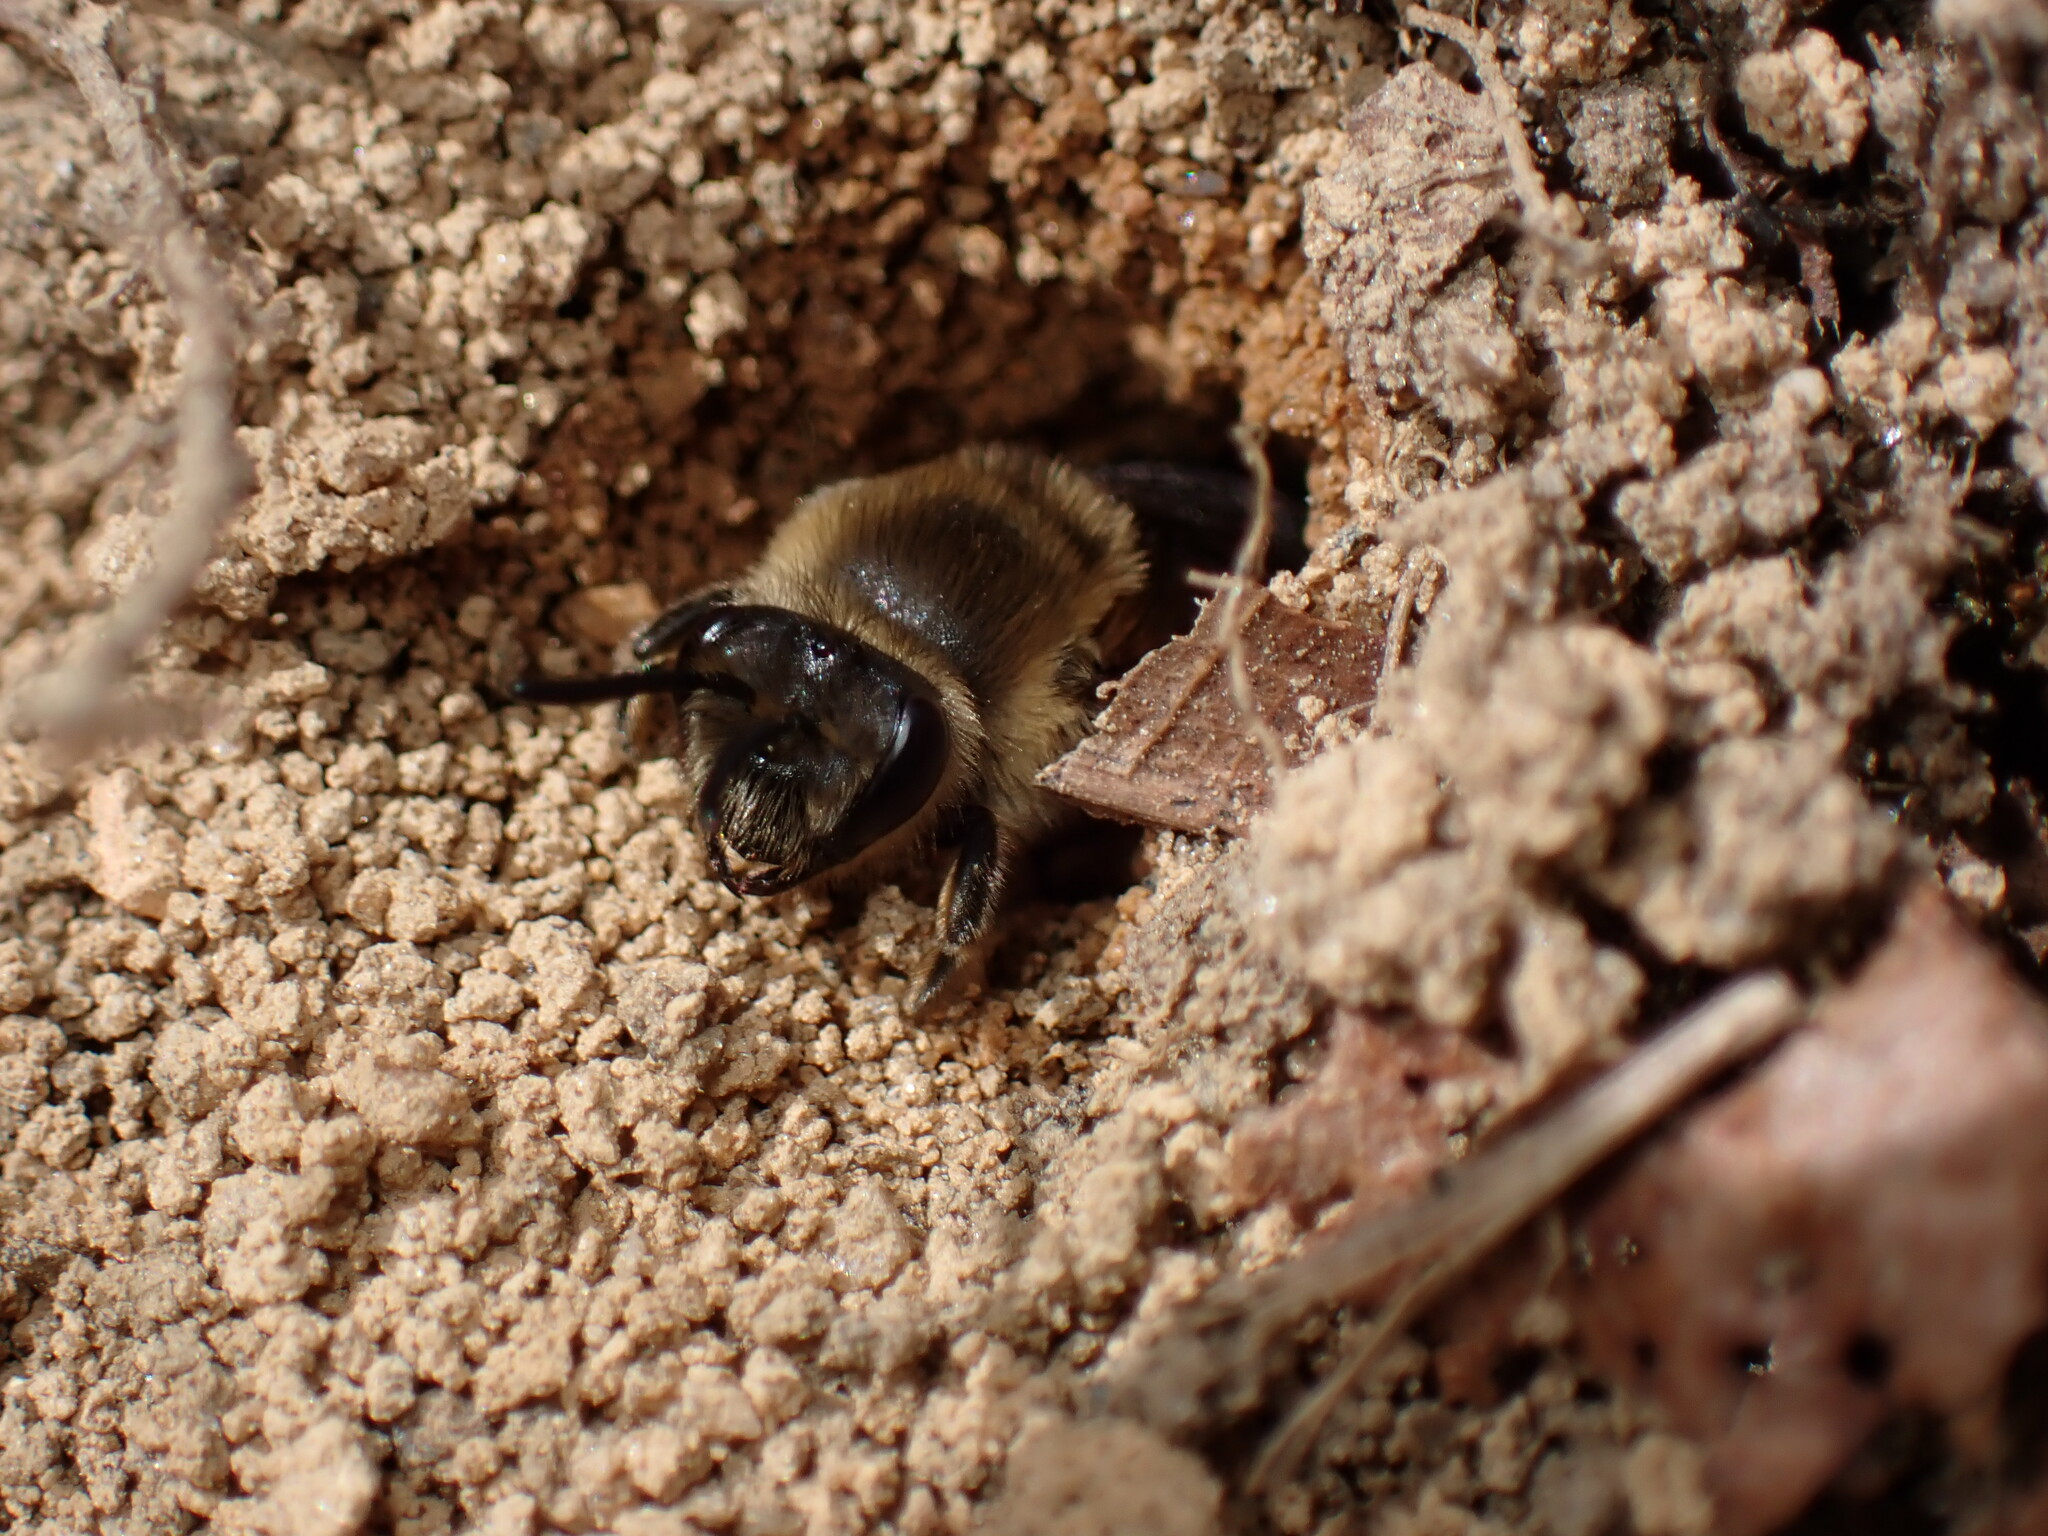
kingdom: Animalia
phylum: Arthropoda
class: Insecta
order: Hymenoptera
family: Colletidae
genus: Colletes
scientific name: Colletes inaequalis
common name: Unequal cellophane bee
